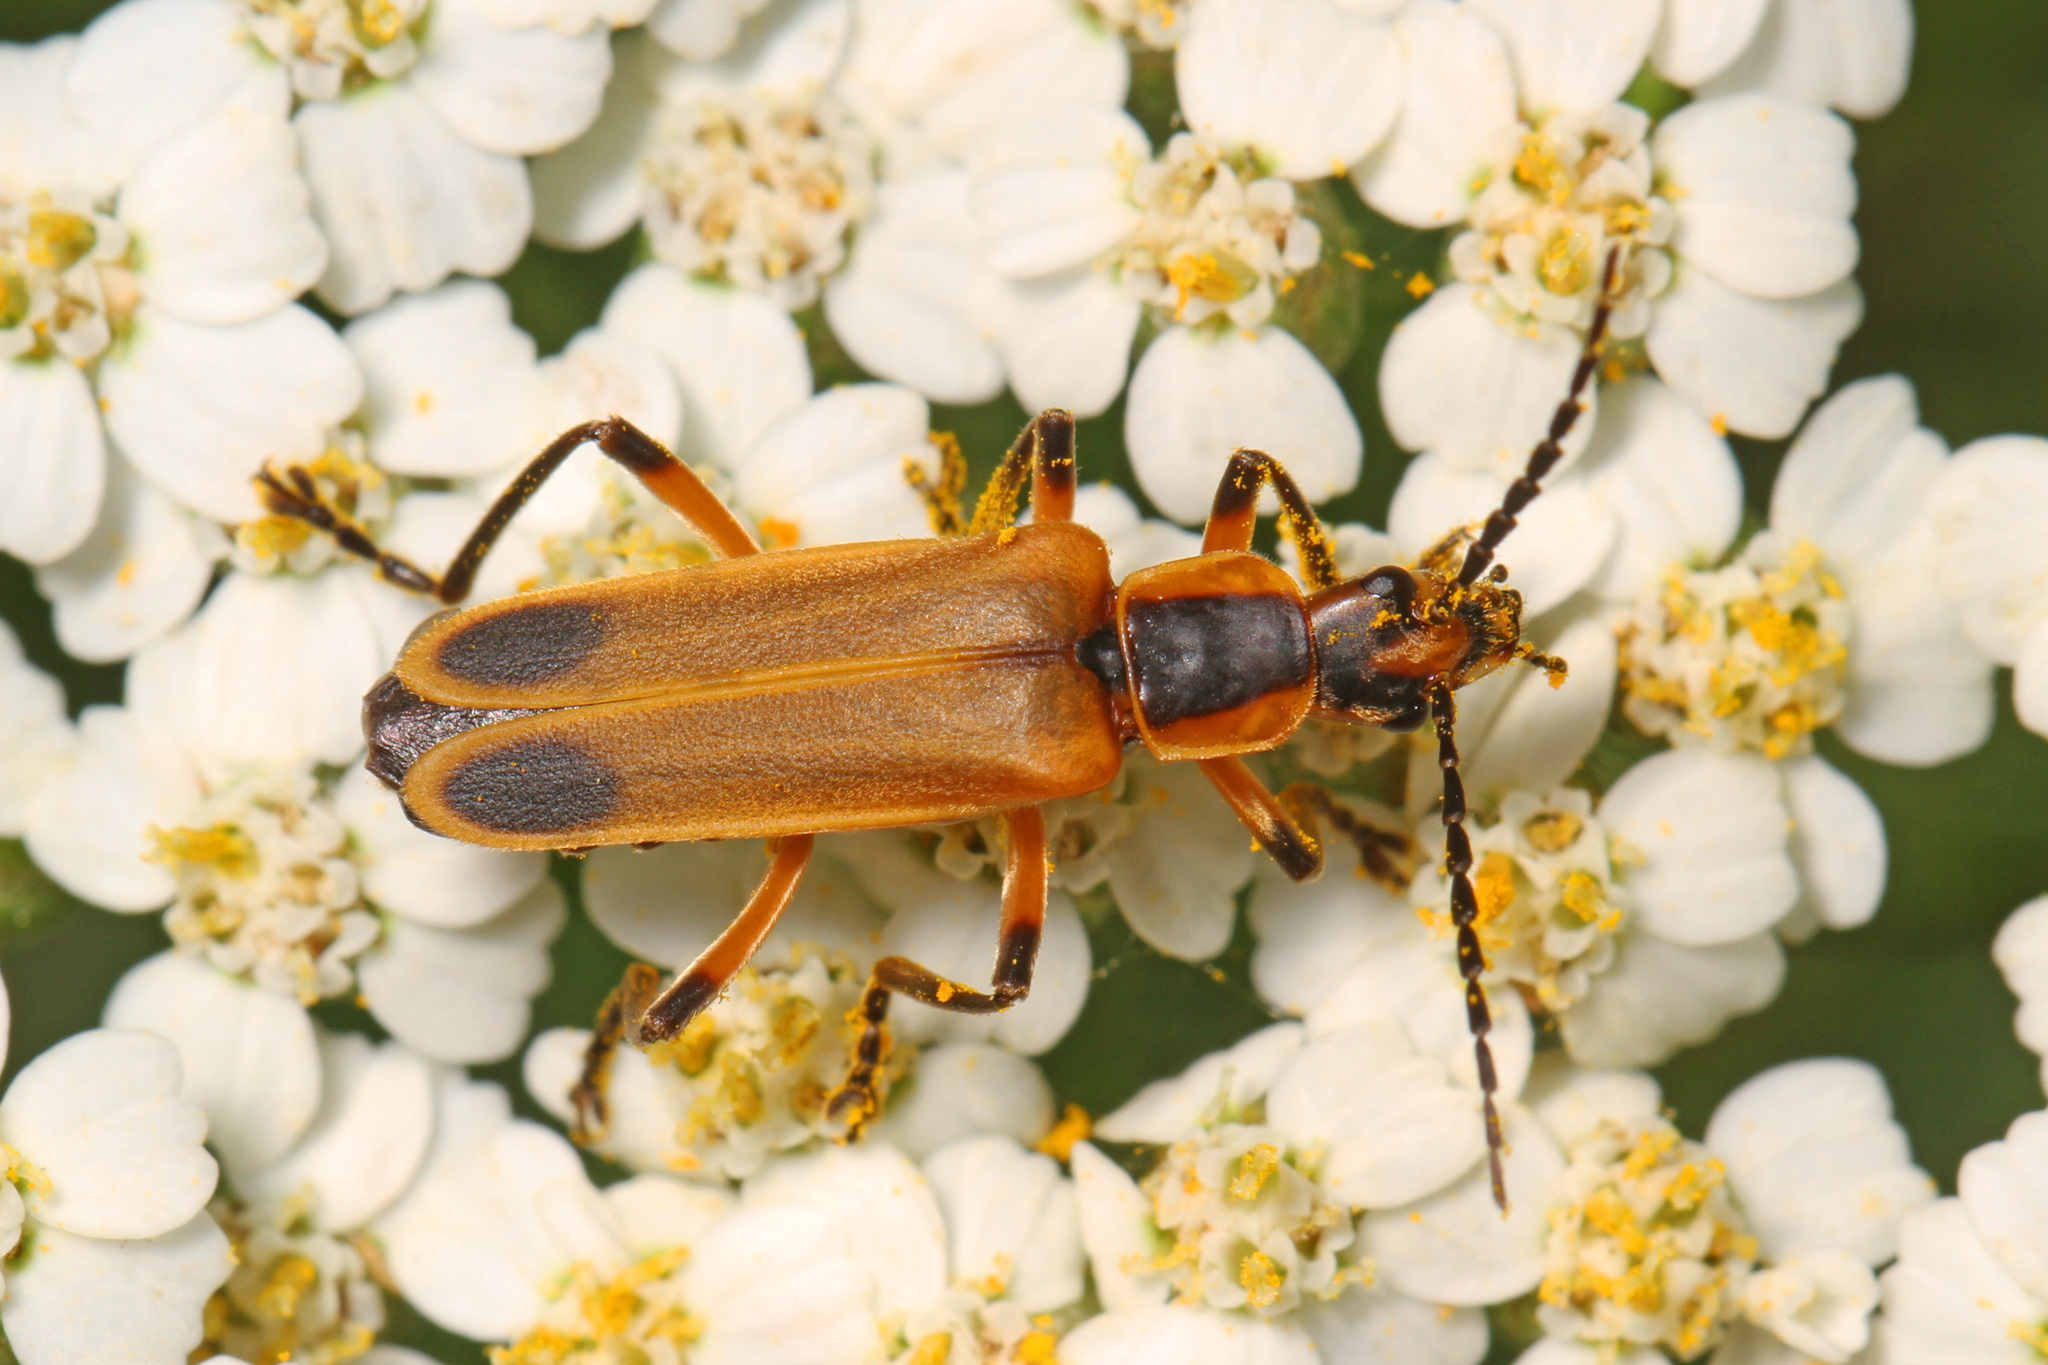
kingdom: Animalia
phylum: Arthropoda
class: Insecta
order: Coleoptera
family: Cantharidae
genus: Chauliognathus
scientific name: Chauliognathus marginatus
